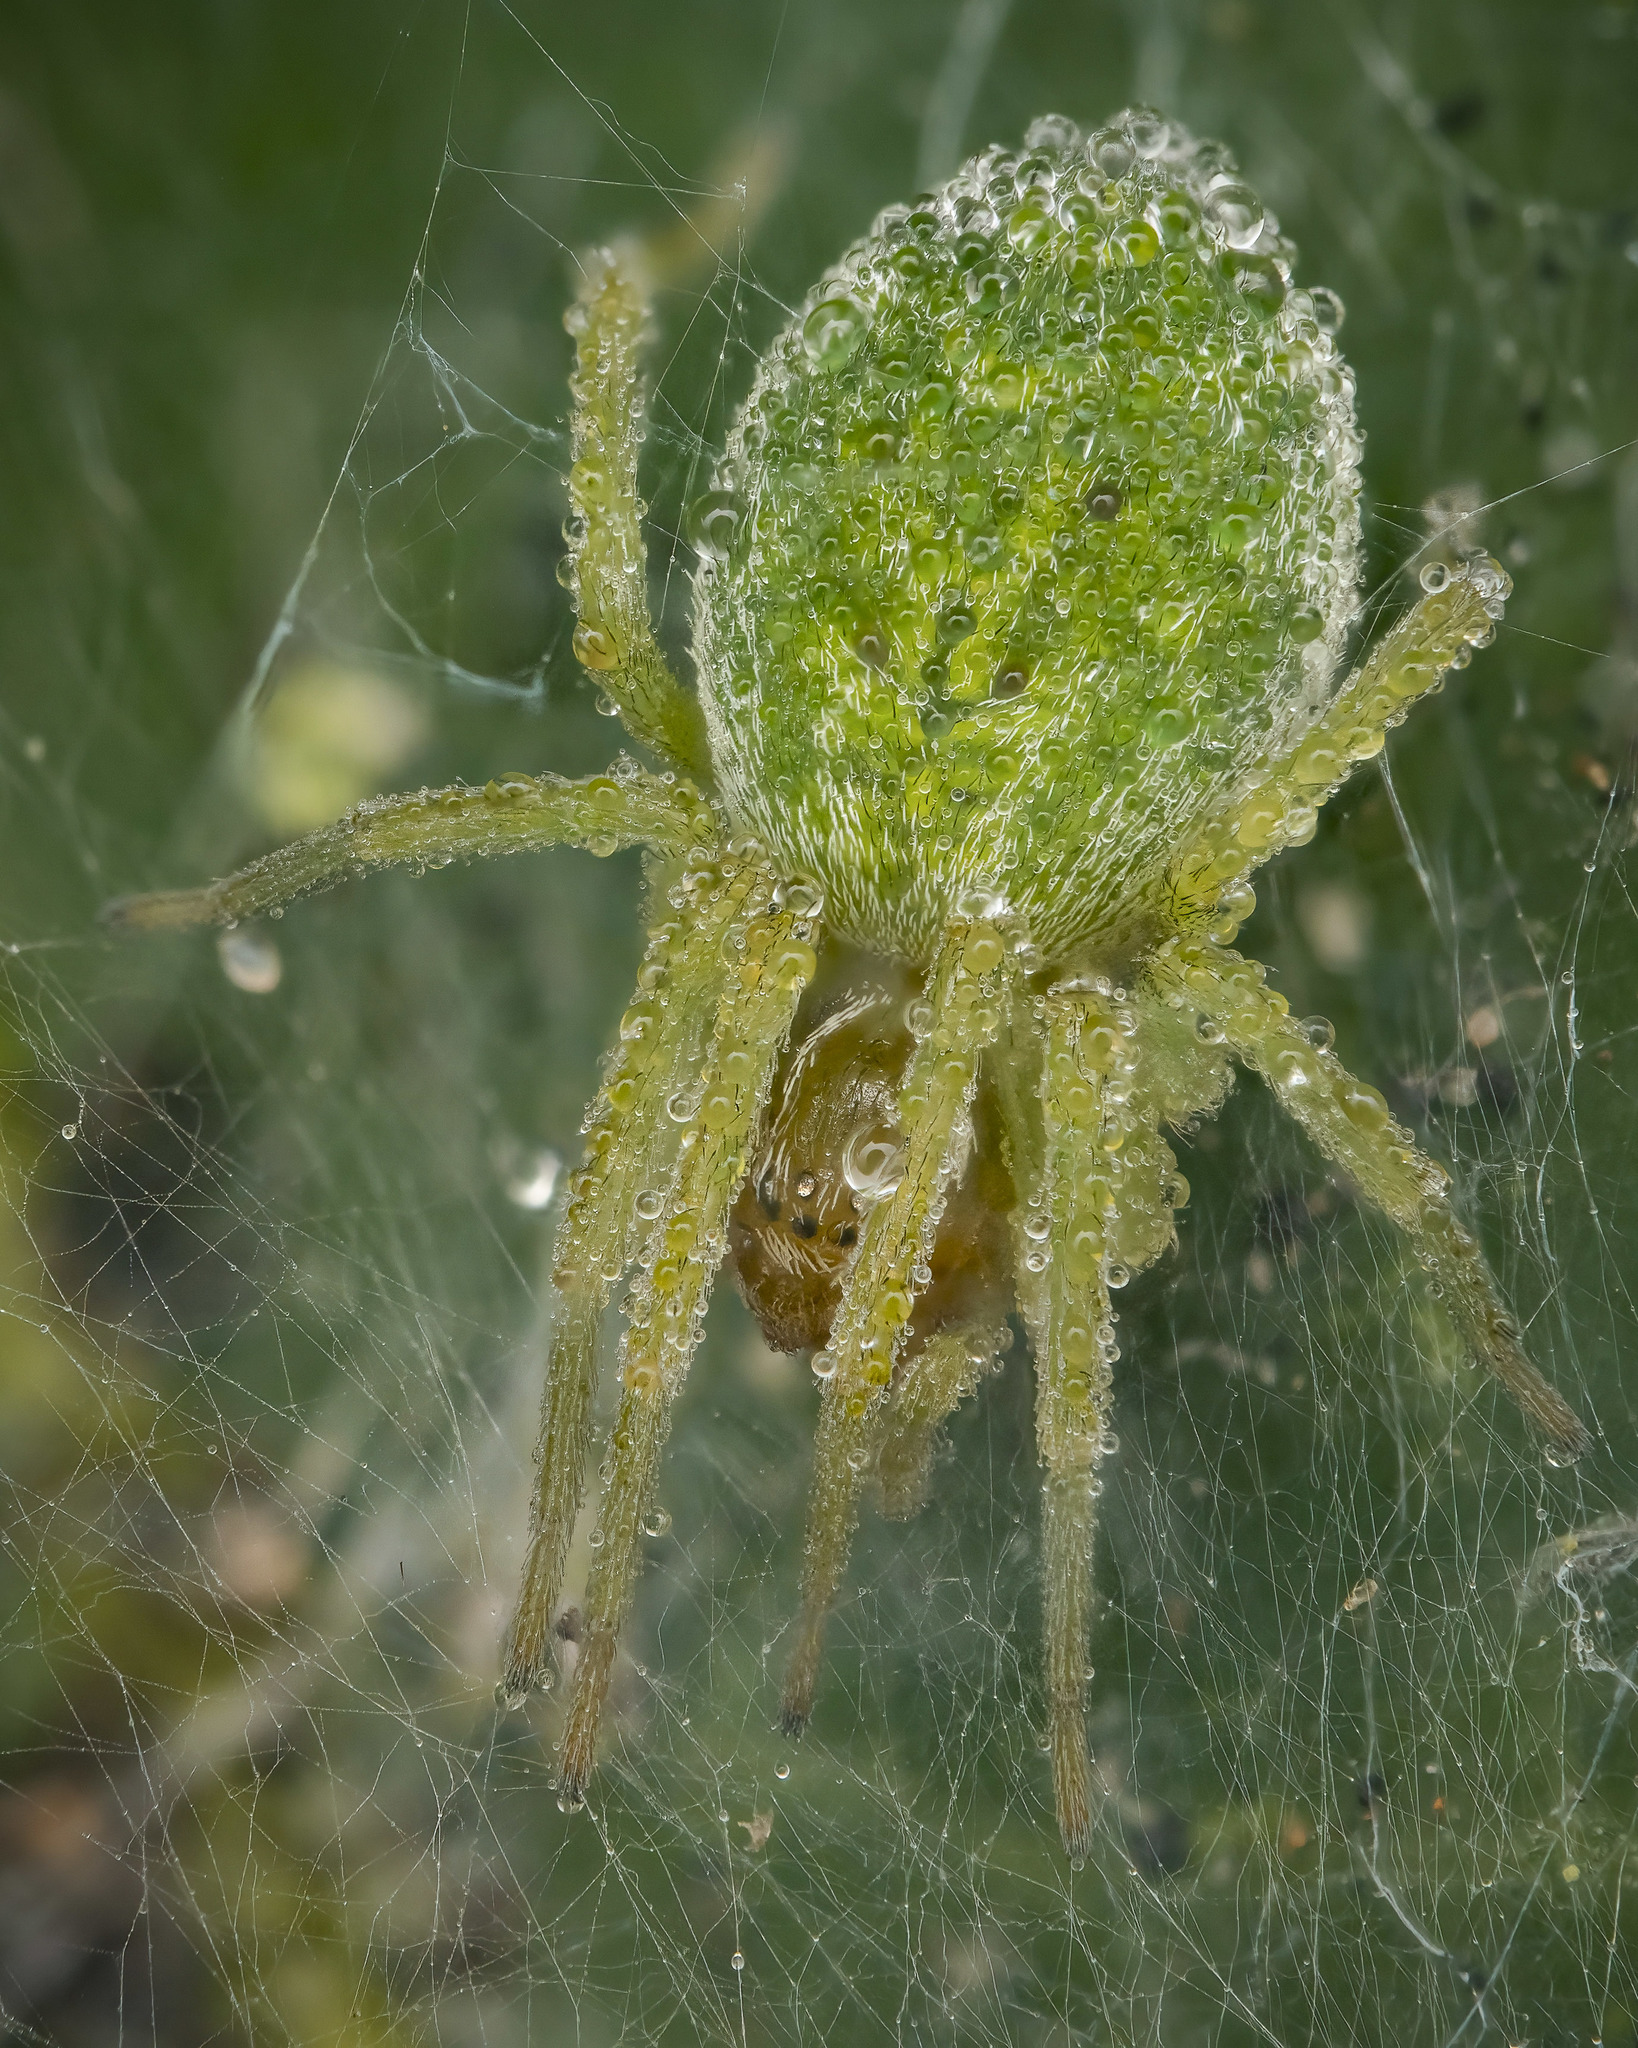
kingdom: Animalia
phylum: Arthropoda
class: Arachnida
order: Araneae
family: Dictynidae
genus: Nigma
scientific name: Nigma walckenaeri
